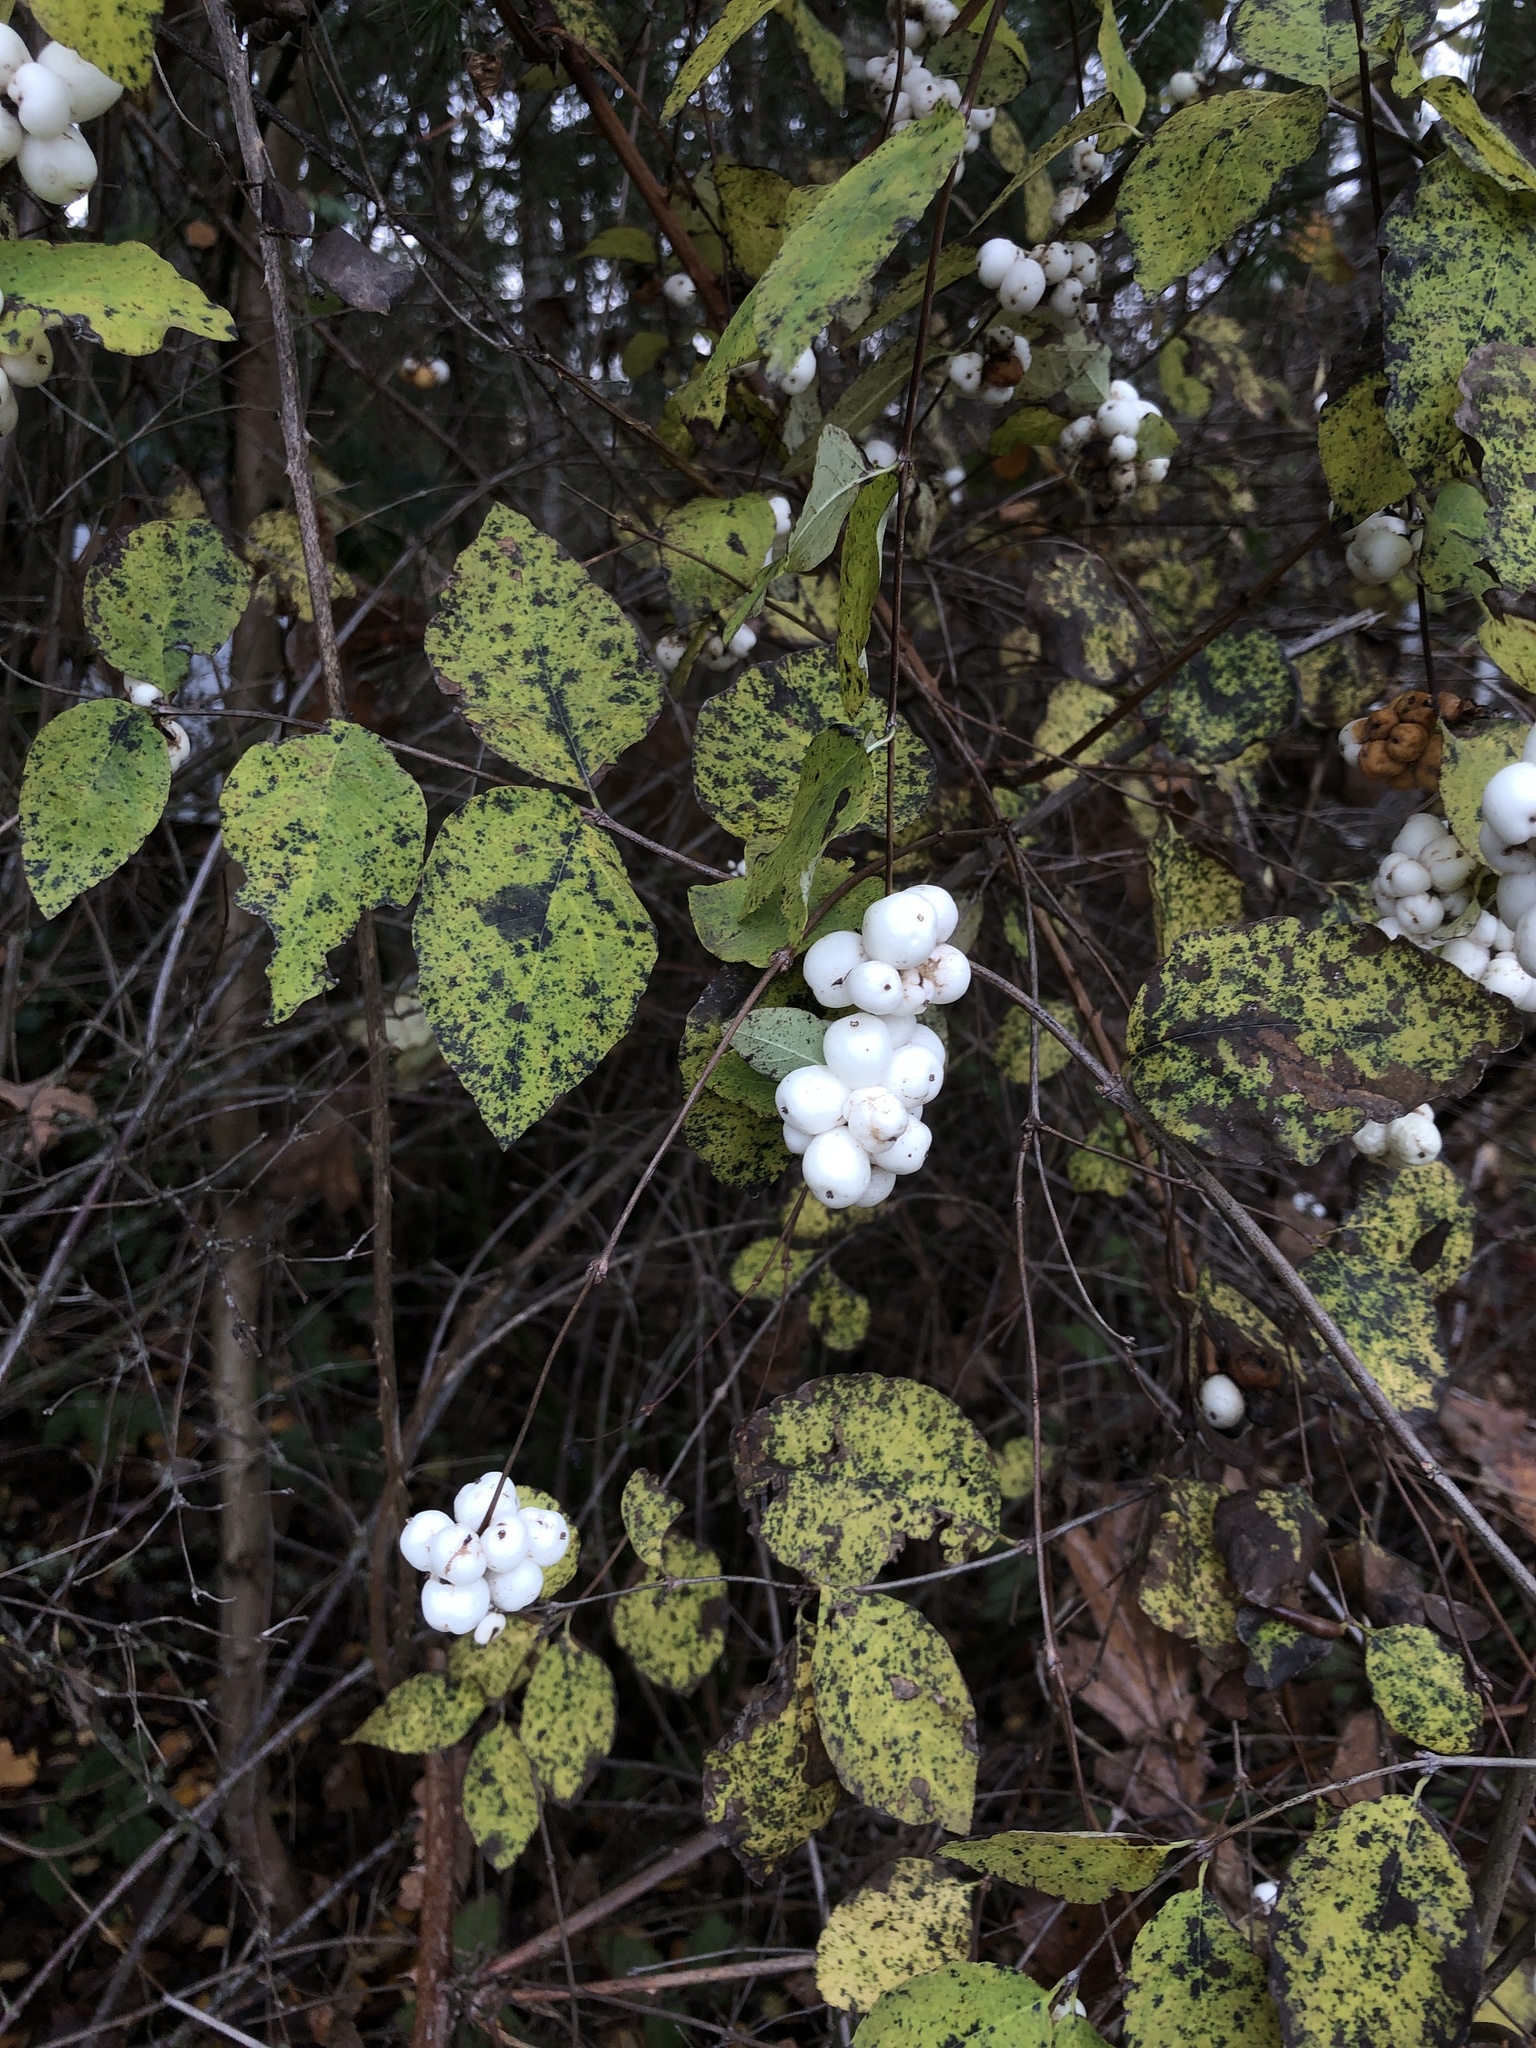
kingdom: Plantae
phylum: Tracheophyta
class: Magnoliopsida
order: Dipsacales
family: Caprifoliaceae
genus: Symphoricarpos
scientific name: Symphoricarpos albus
